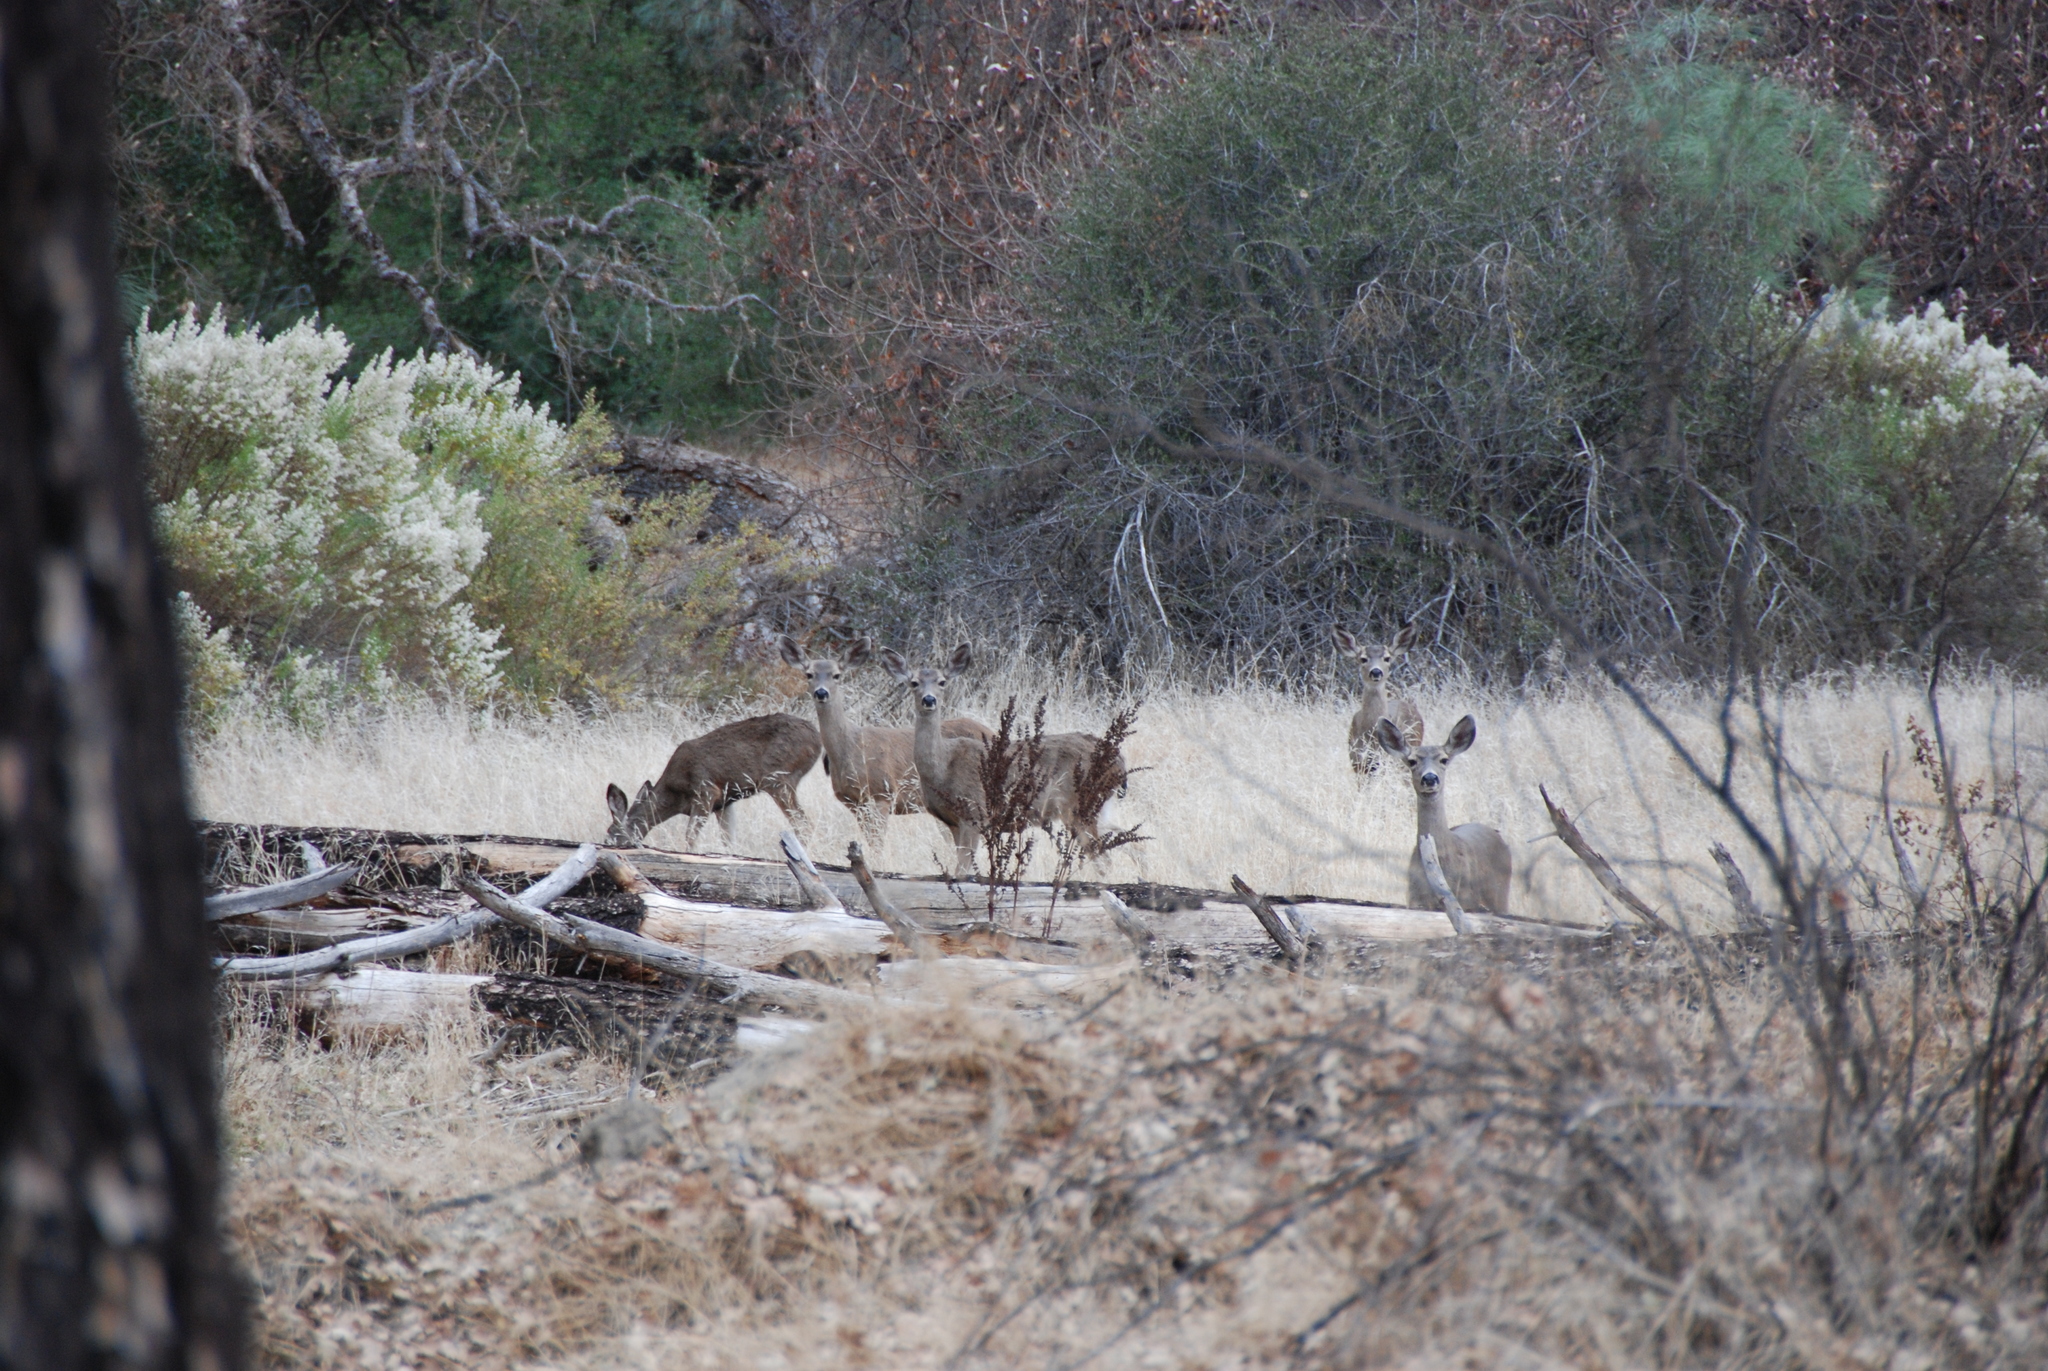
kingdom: Animalia
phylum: Chordata
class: Mammalia
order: Artiodactyla
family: Cervidae
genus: Odocoileus
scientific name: Odocoileus hemionus
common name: Mule deer
